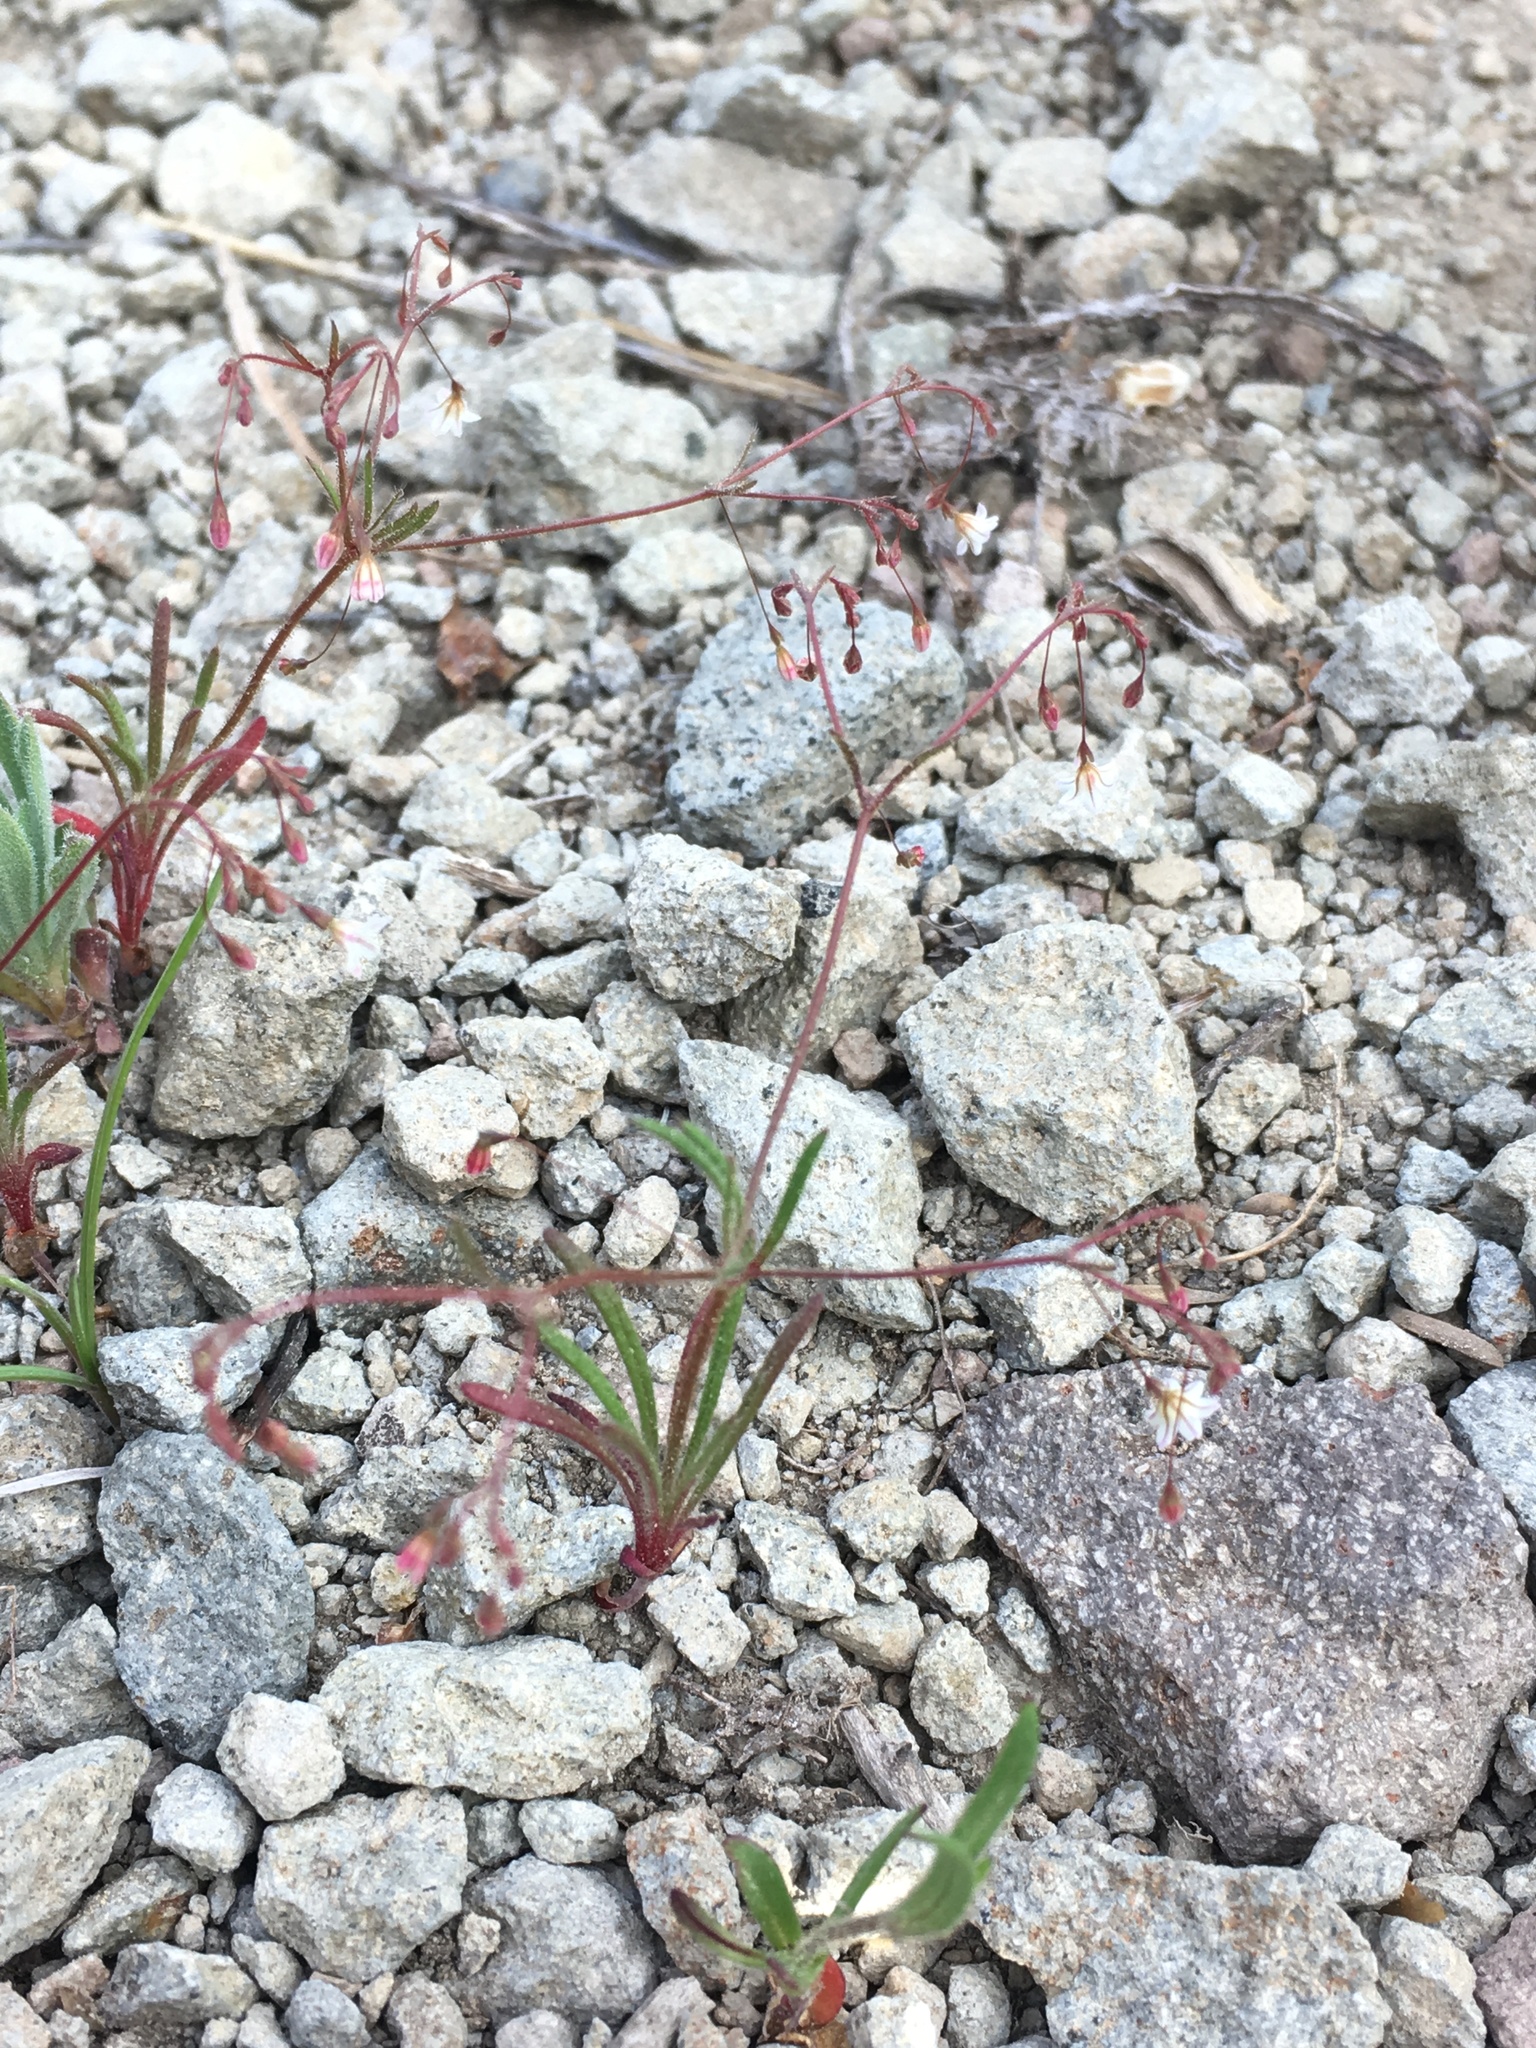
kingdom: Plantae
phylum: Tracheophyta
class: Magnoliopsida
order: Caryophyllales
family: Polygonaceae
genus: Eriogonum
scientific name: Eriogonum spergulinum
